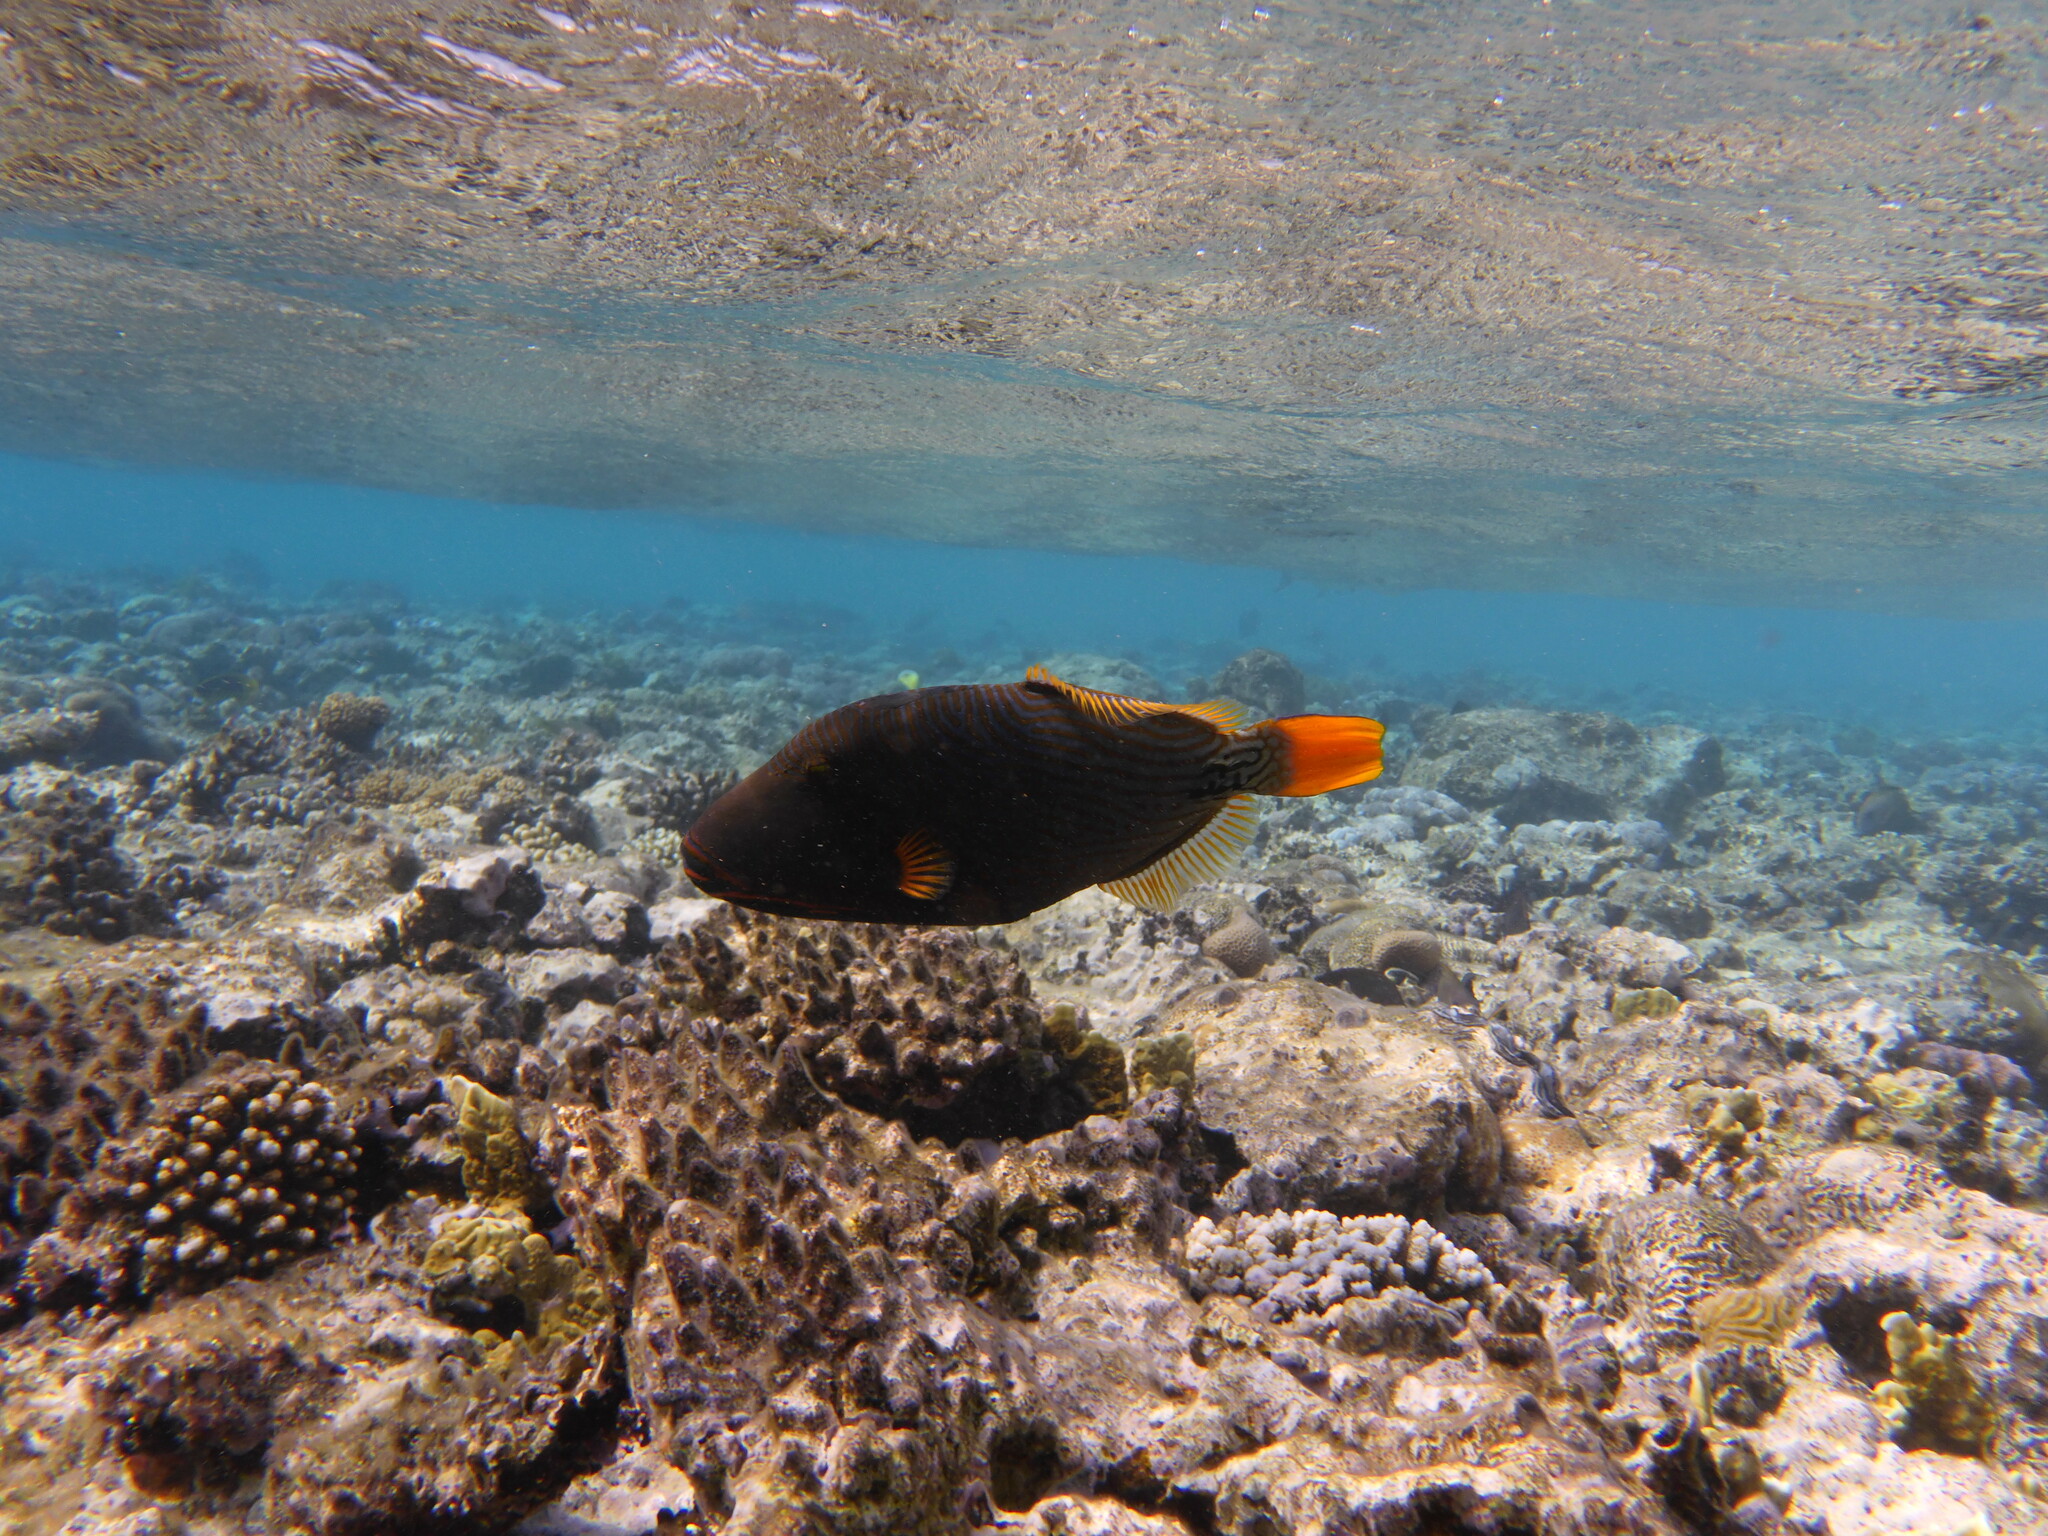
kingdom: Animalia
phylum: Chordata
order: Tetraodontiformes
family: Balistidae
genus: Balistapus
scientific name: Balistapus undulatus
